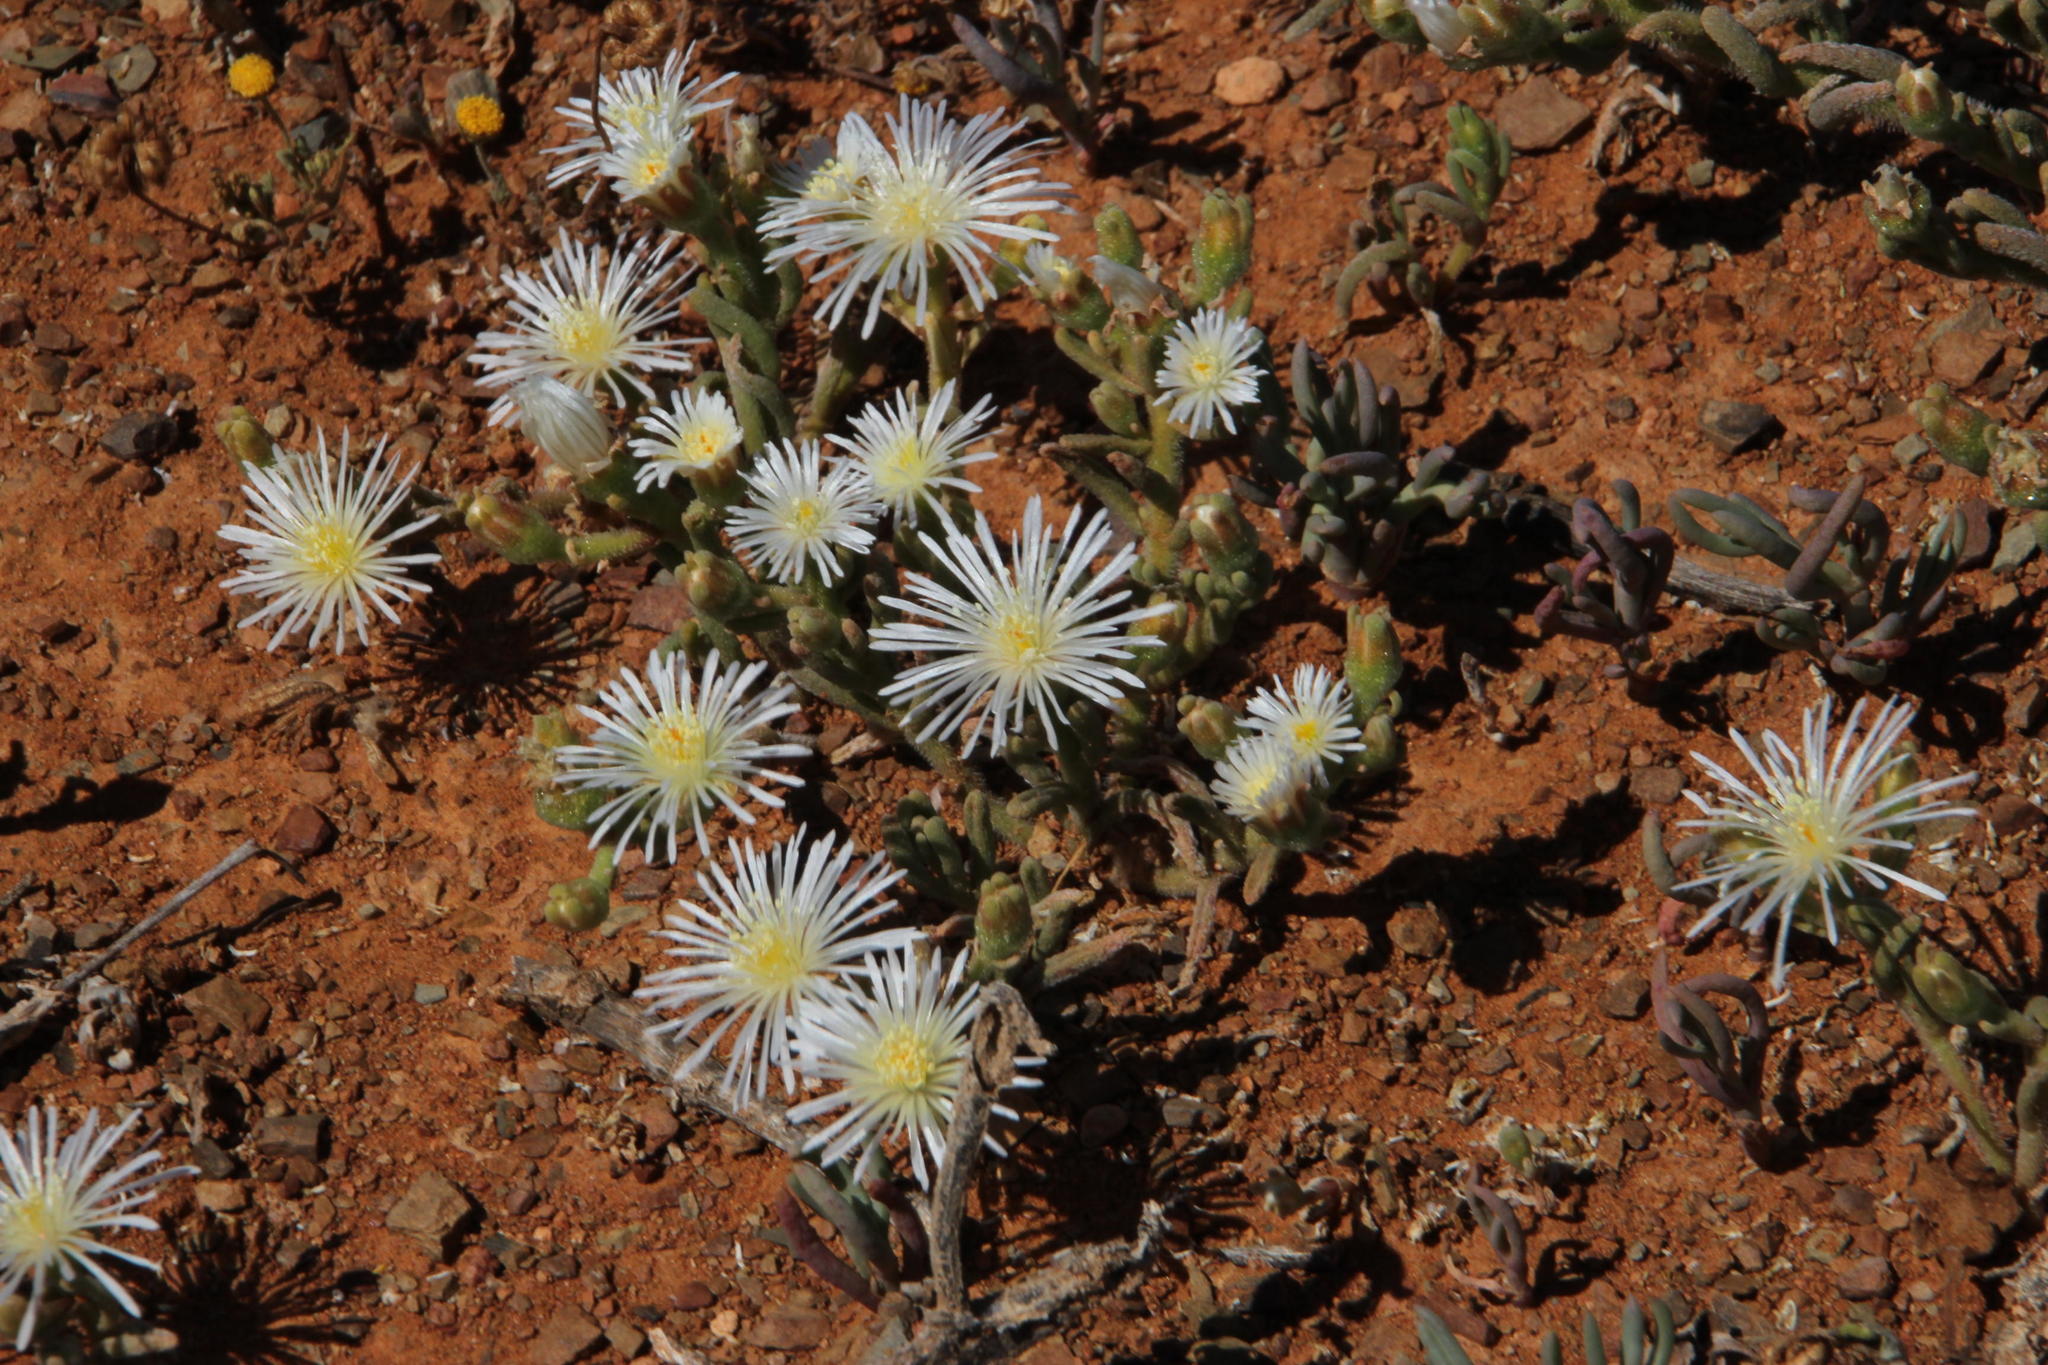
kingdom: Plantae
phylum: Tracheophyta
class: Magnoliopsida
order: Caryophyllales
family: Aizoaceae
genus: Mesembryanthemum
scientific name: Mesembryanthemum nodiflorum
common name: Slenderleaf iceplant
